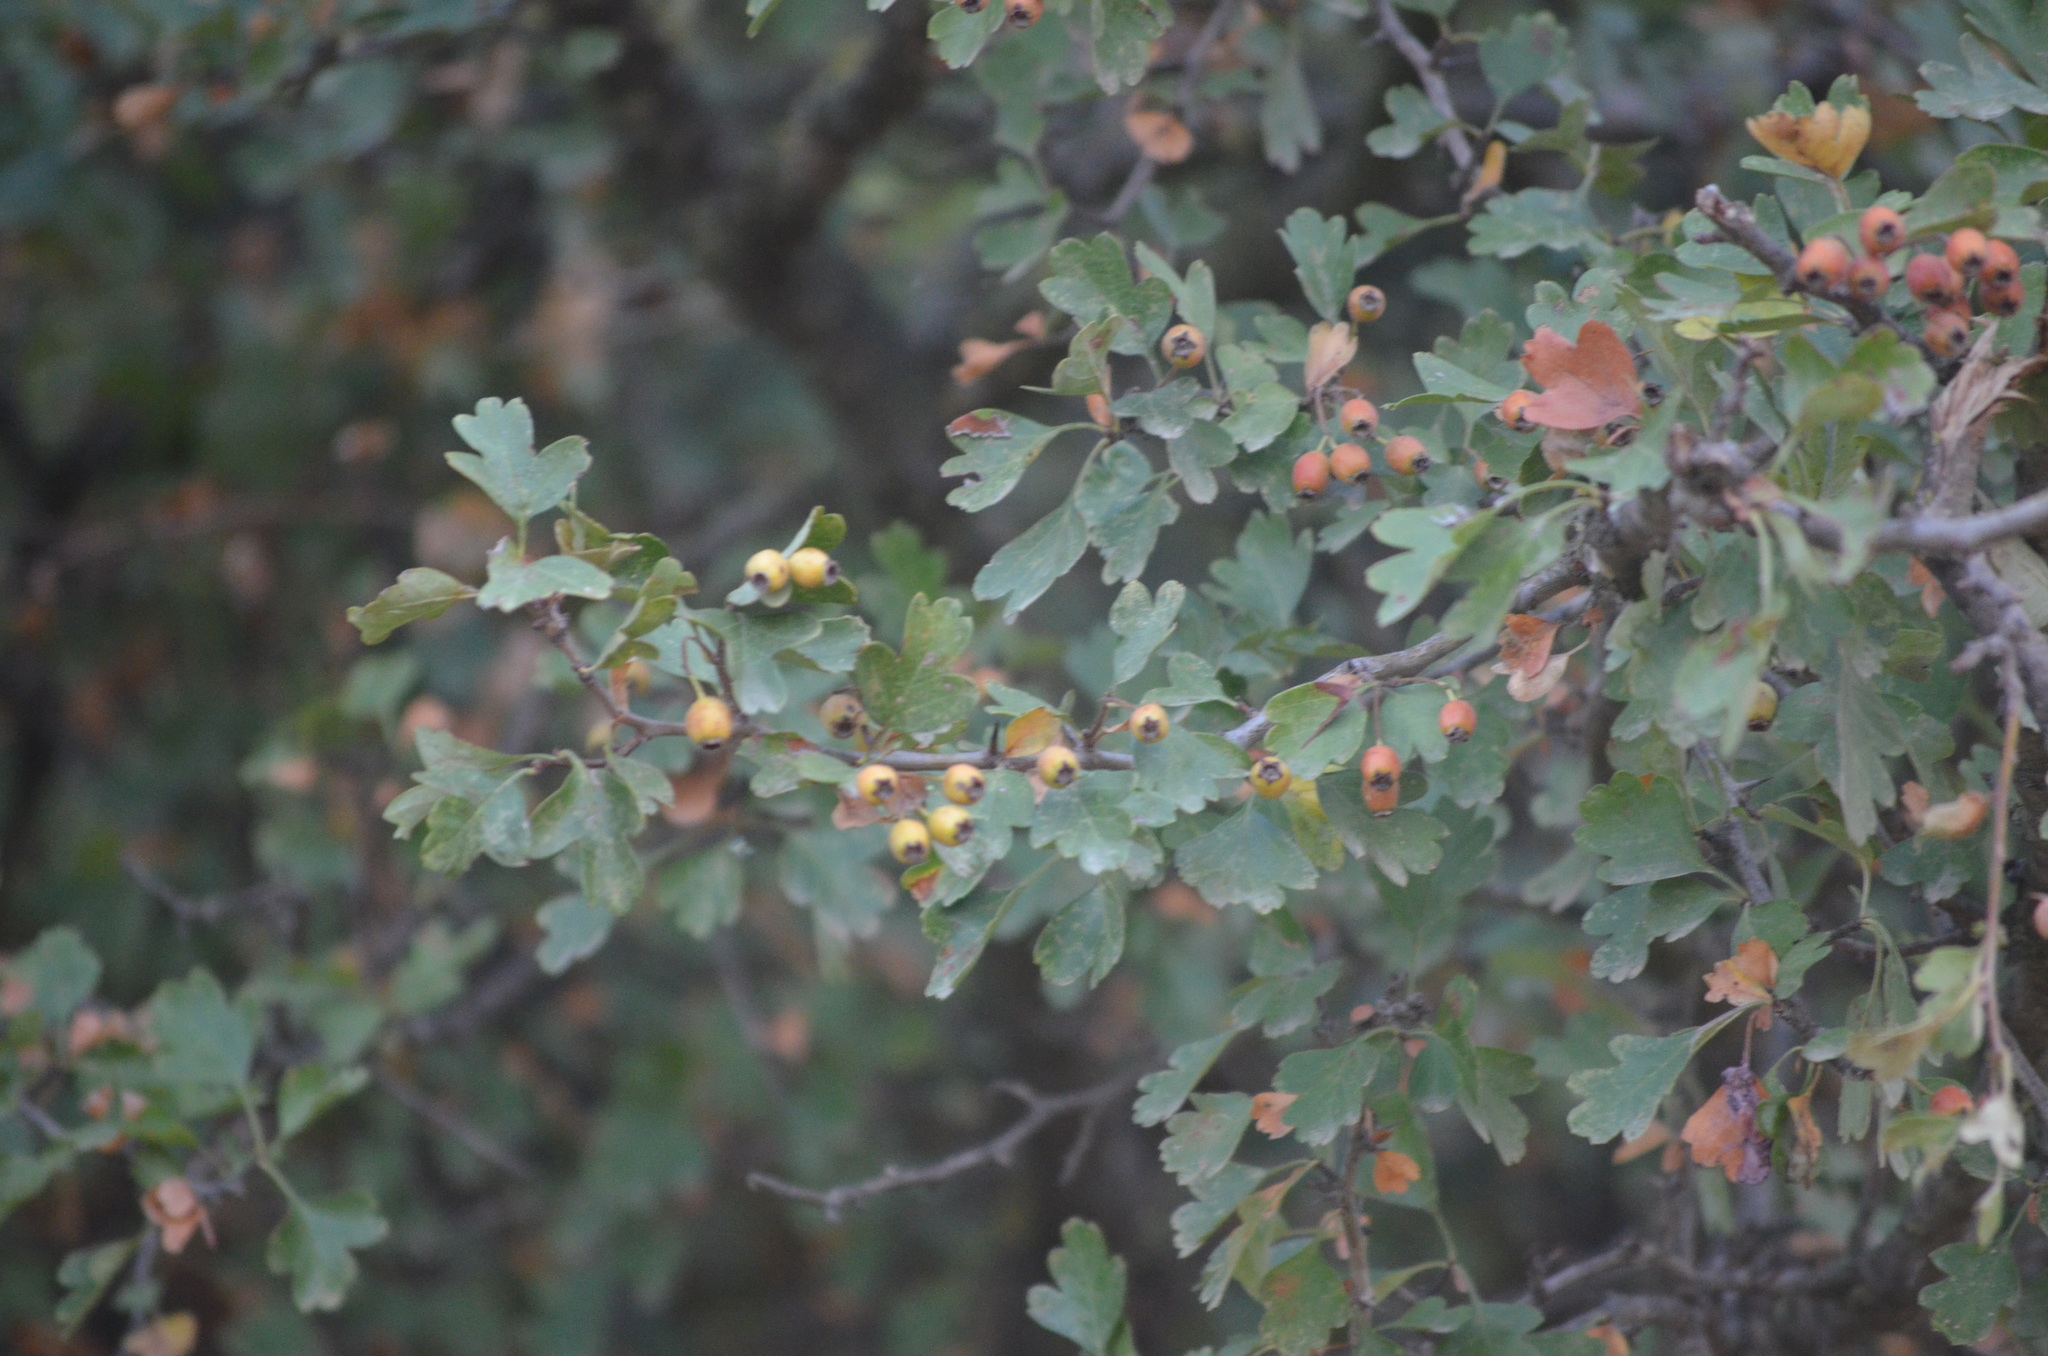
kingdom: Plantae
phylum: Tracheophyta
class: Magnoliopsida
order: Rosales
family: Rosaceae
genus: Crataegus
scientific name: Crataegus monogyna
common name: Hawthorn
